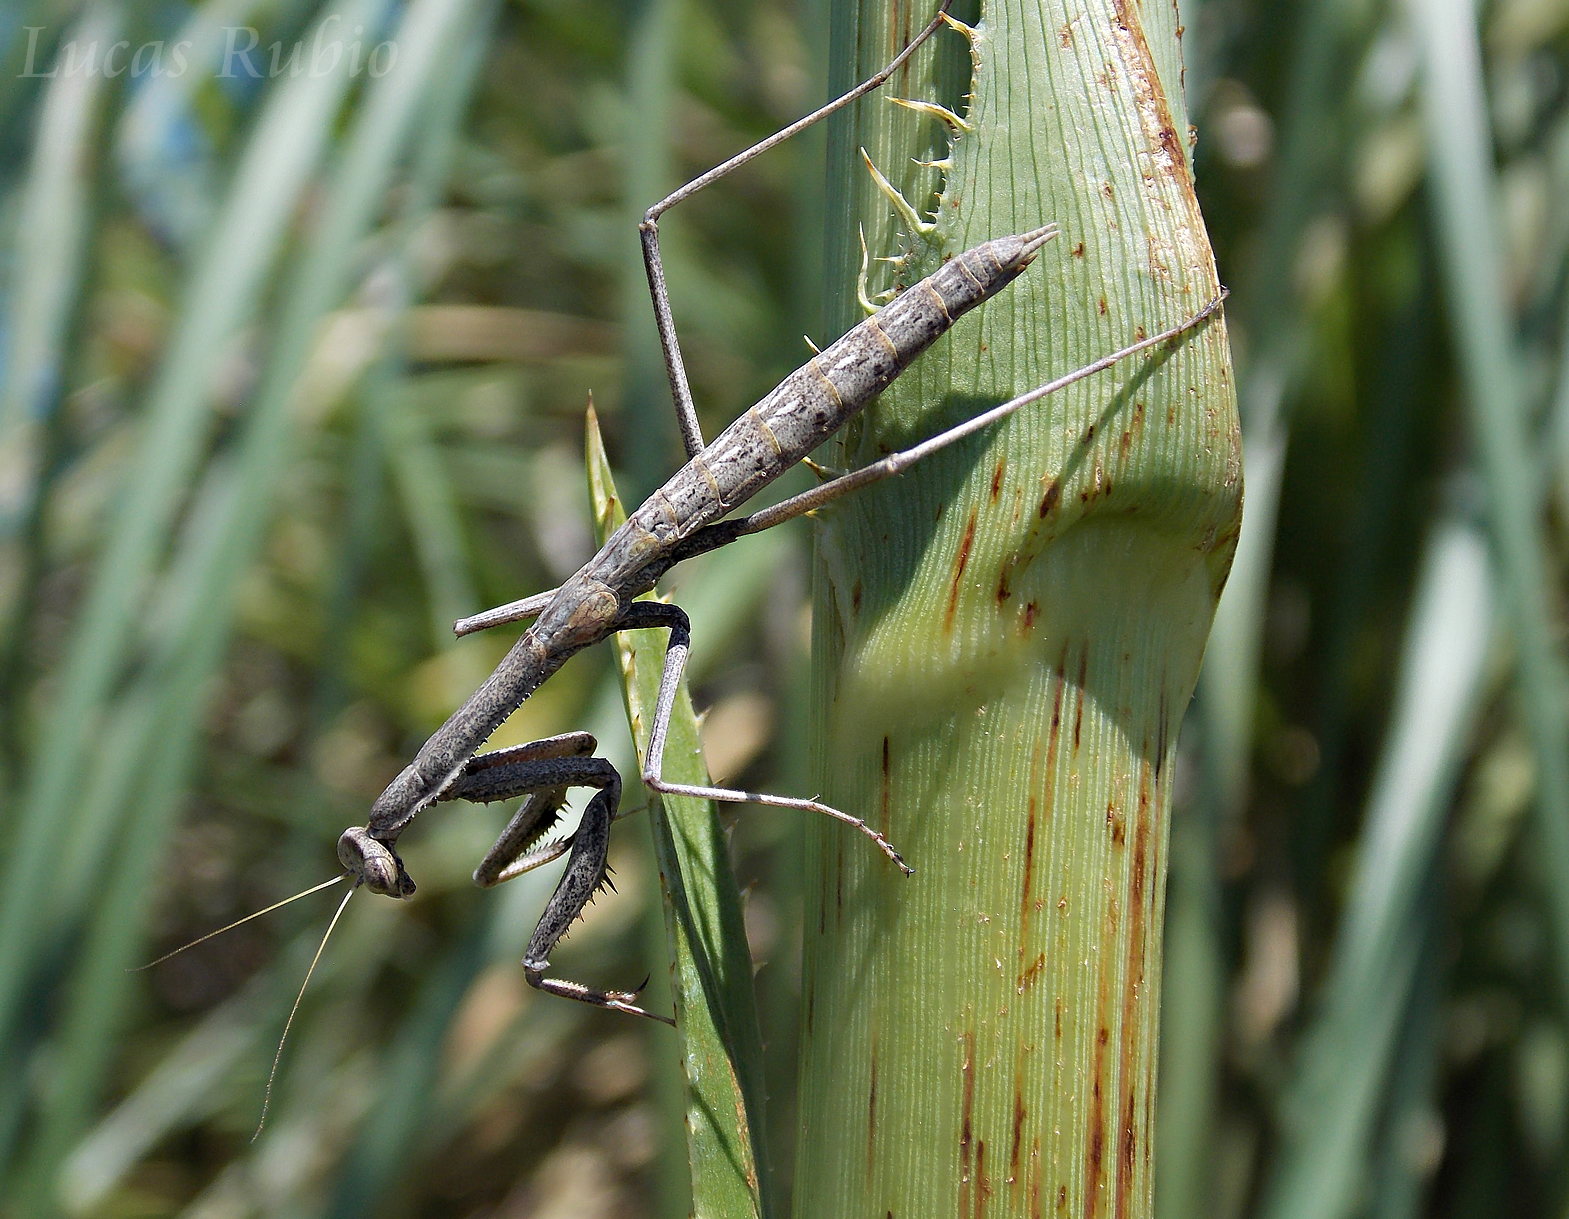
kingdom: Animalia
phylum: Arthropoda
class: Insecta
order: Mantodea
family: Coptopterygidae
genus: Coptopteryx
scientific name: Coptopteryx gayi
